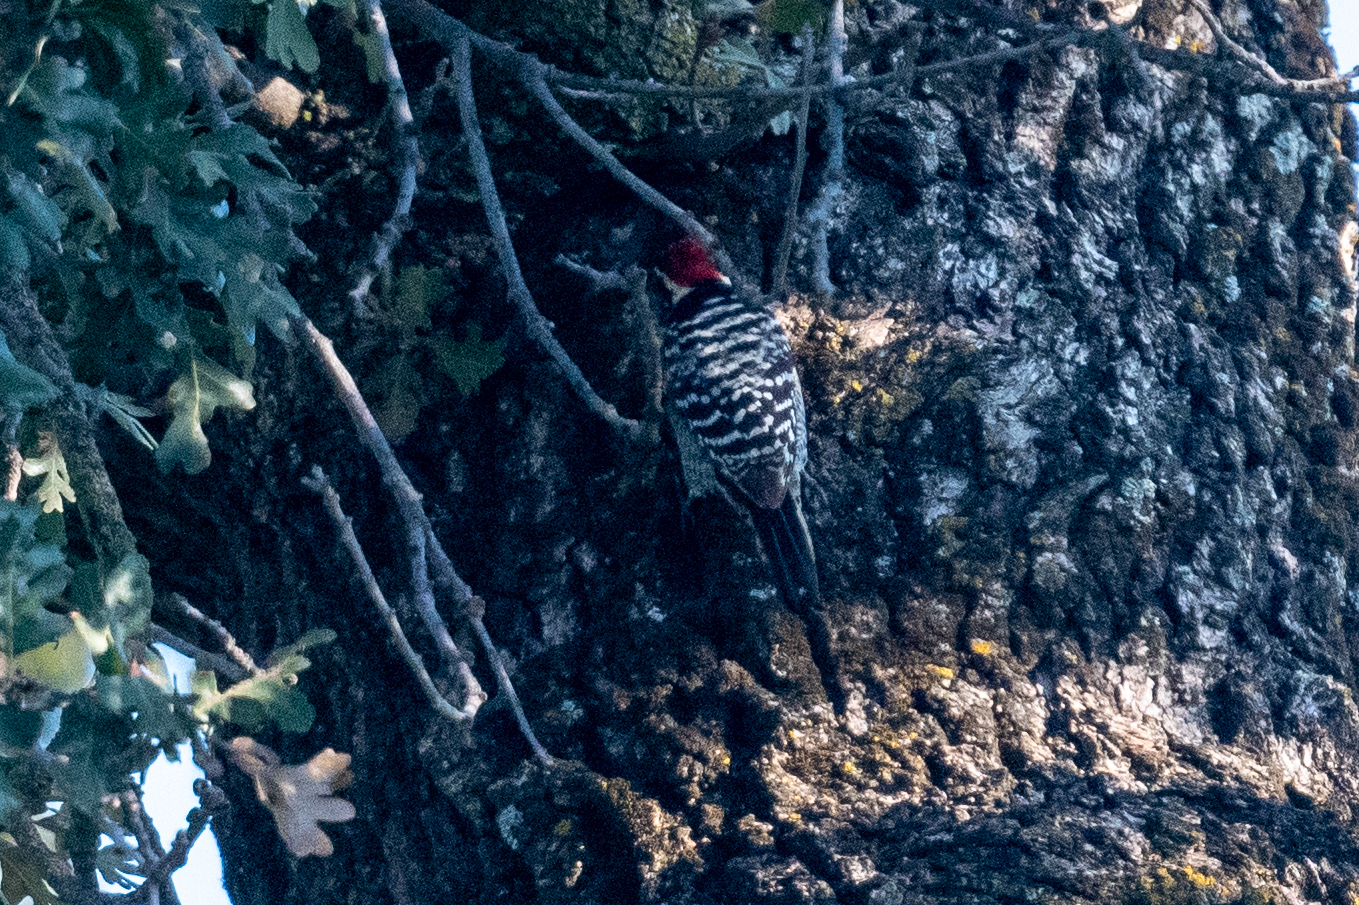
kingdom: Animalia
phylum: Chordata
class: Aves
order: Piciformes
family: Picidae
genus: Dryobates
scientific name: Dryobates nuttallii
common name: Nuttall's woodpecker
